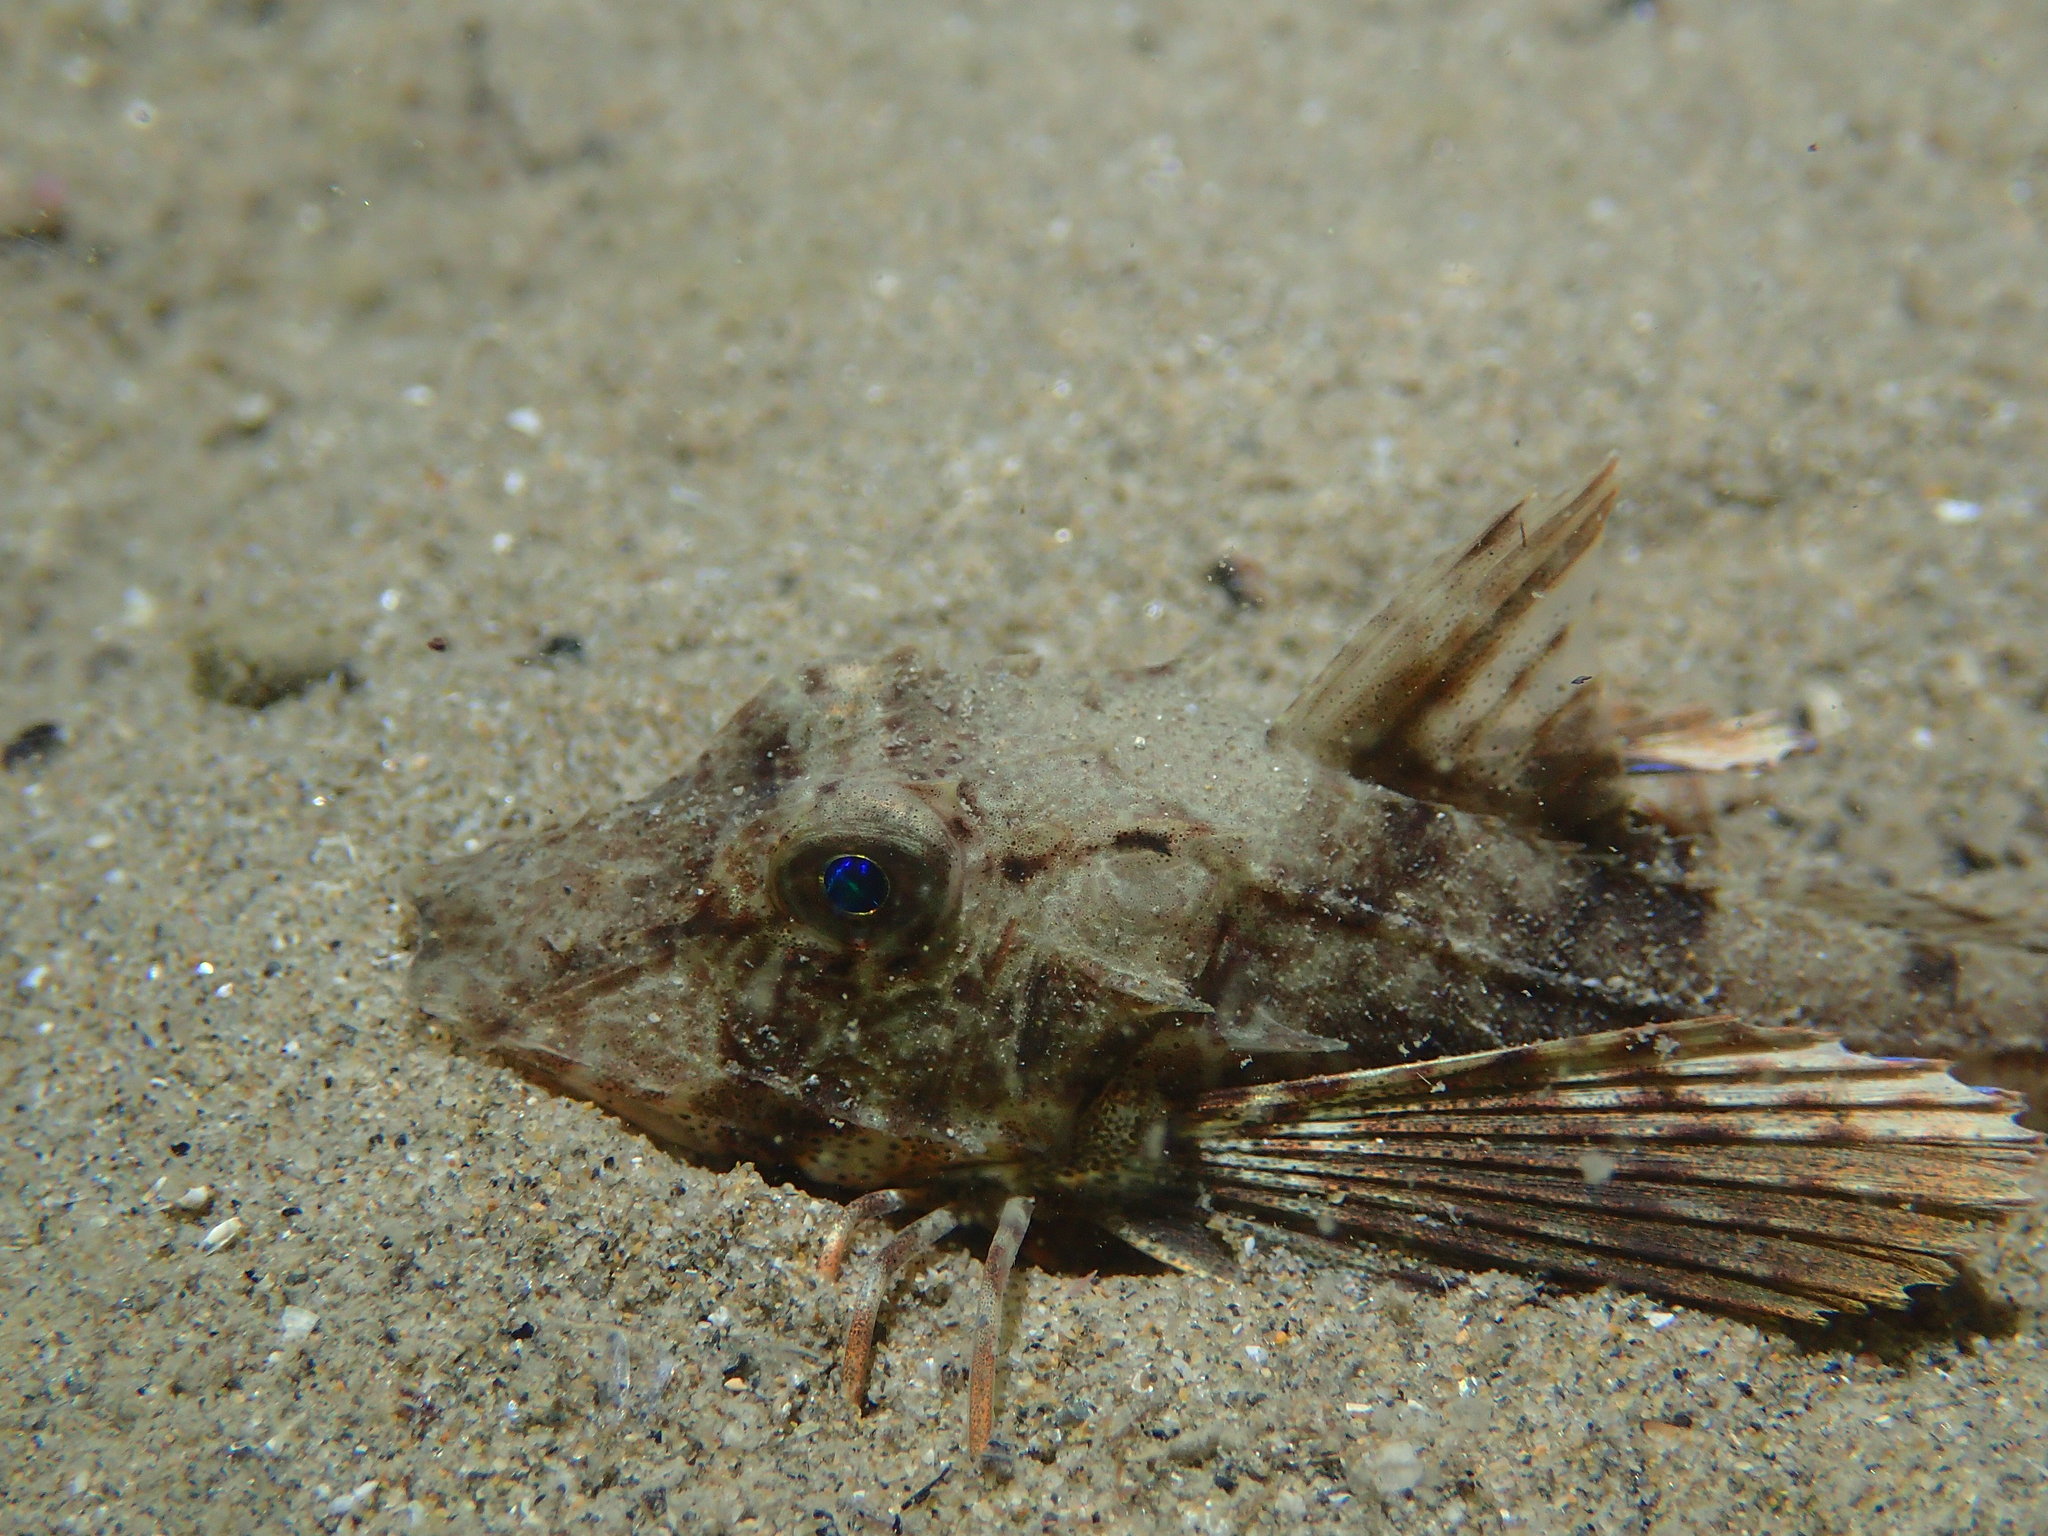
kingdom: Animalia
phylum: Chordata
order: Scorpaeniformes
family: Triglidae
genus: Chelidonichthys
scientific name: Chelidonichthys lucerna
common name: Tub gurnard
